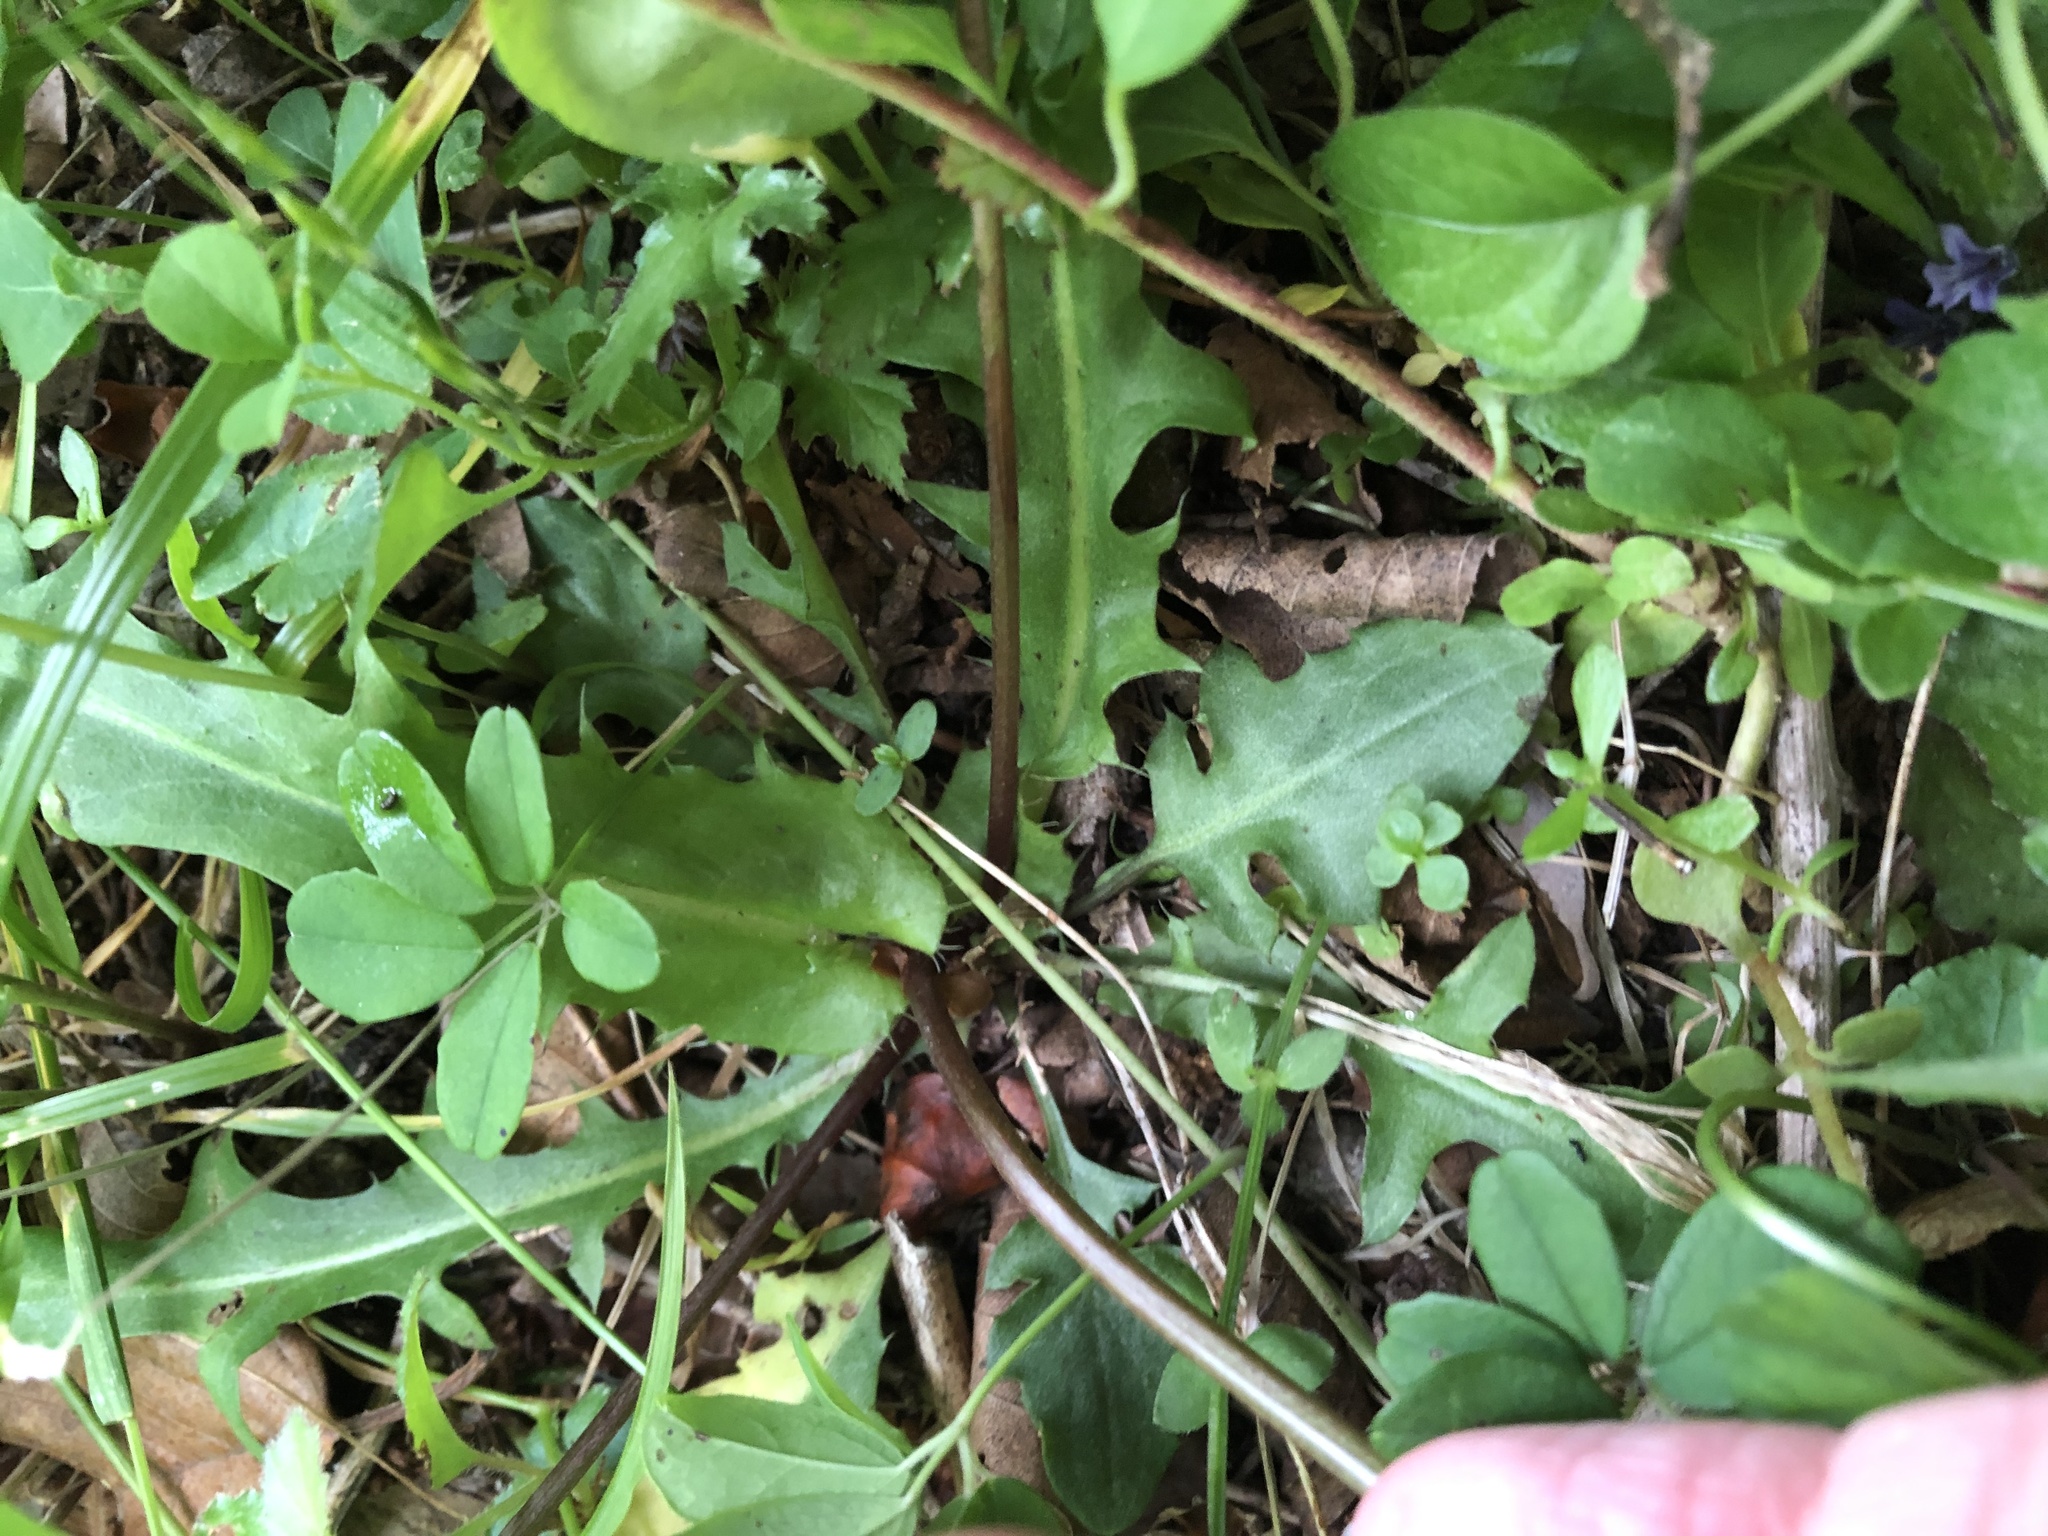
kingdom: Plantae
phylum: Tracheophyta
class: Magnoliopsida
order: Asterales
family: Asteraceae
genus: Ixeridium
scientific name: Ixeridium dentatum
